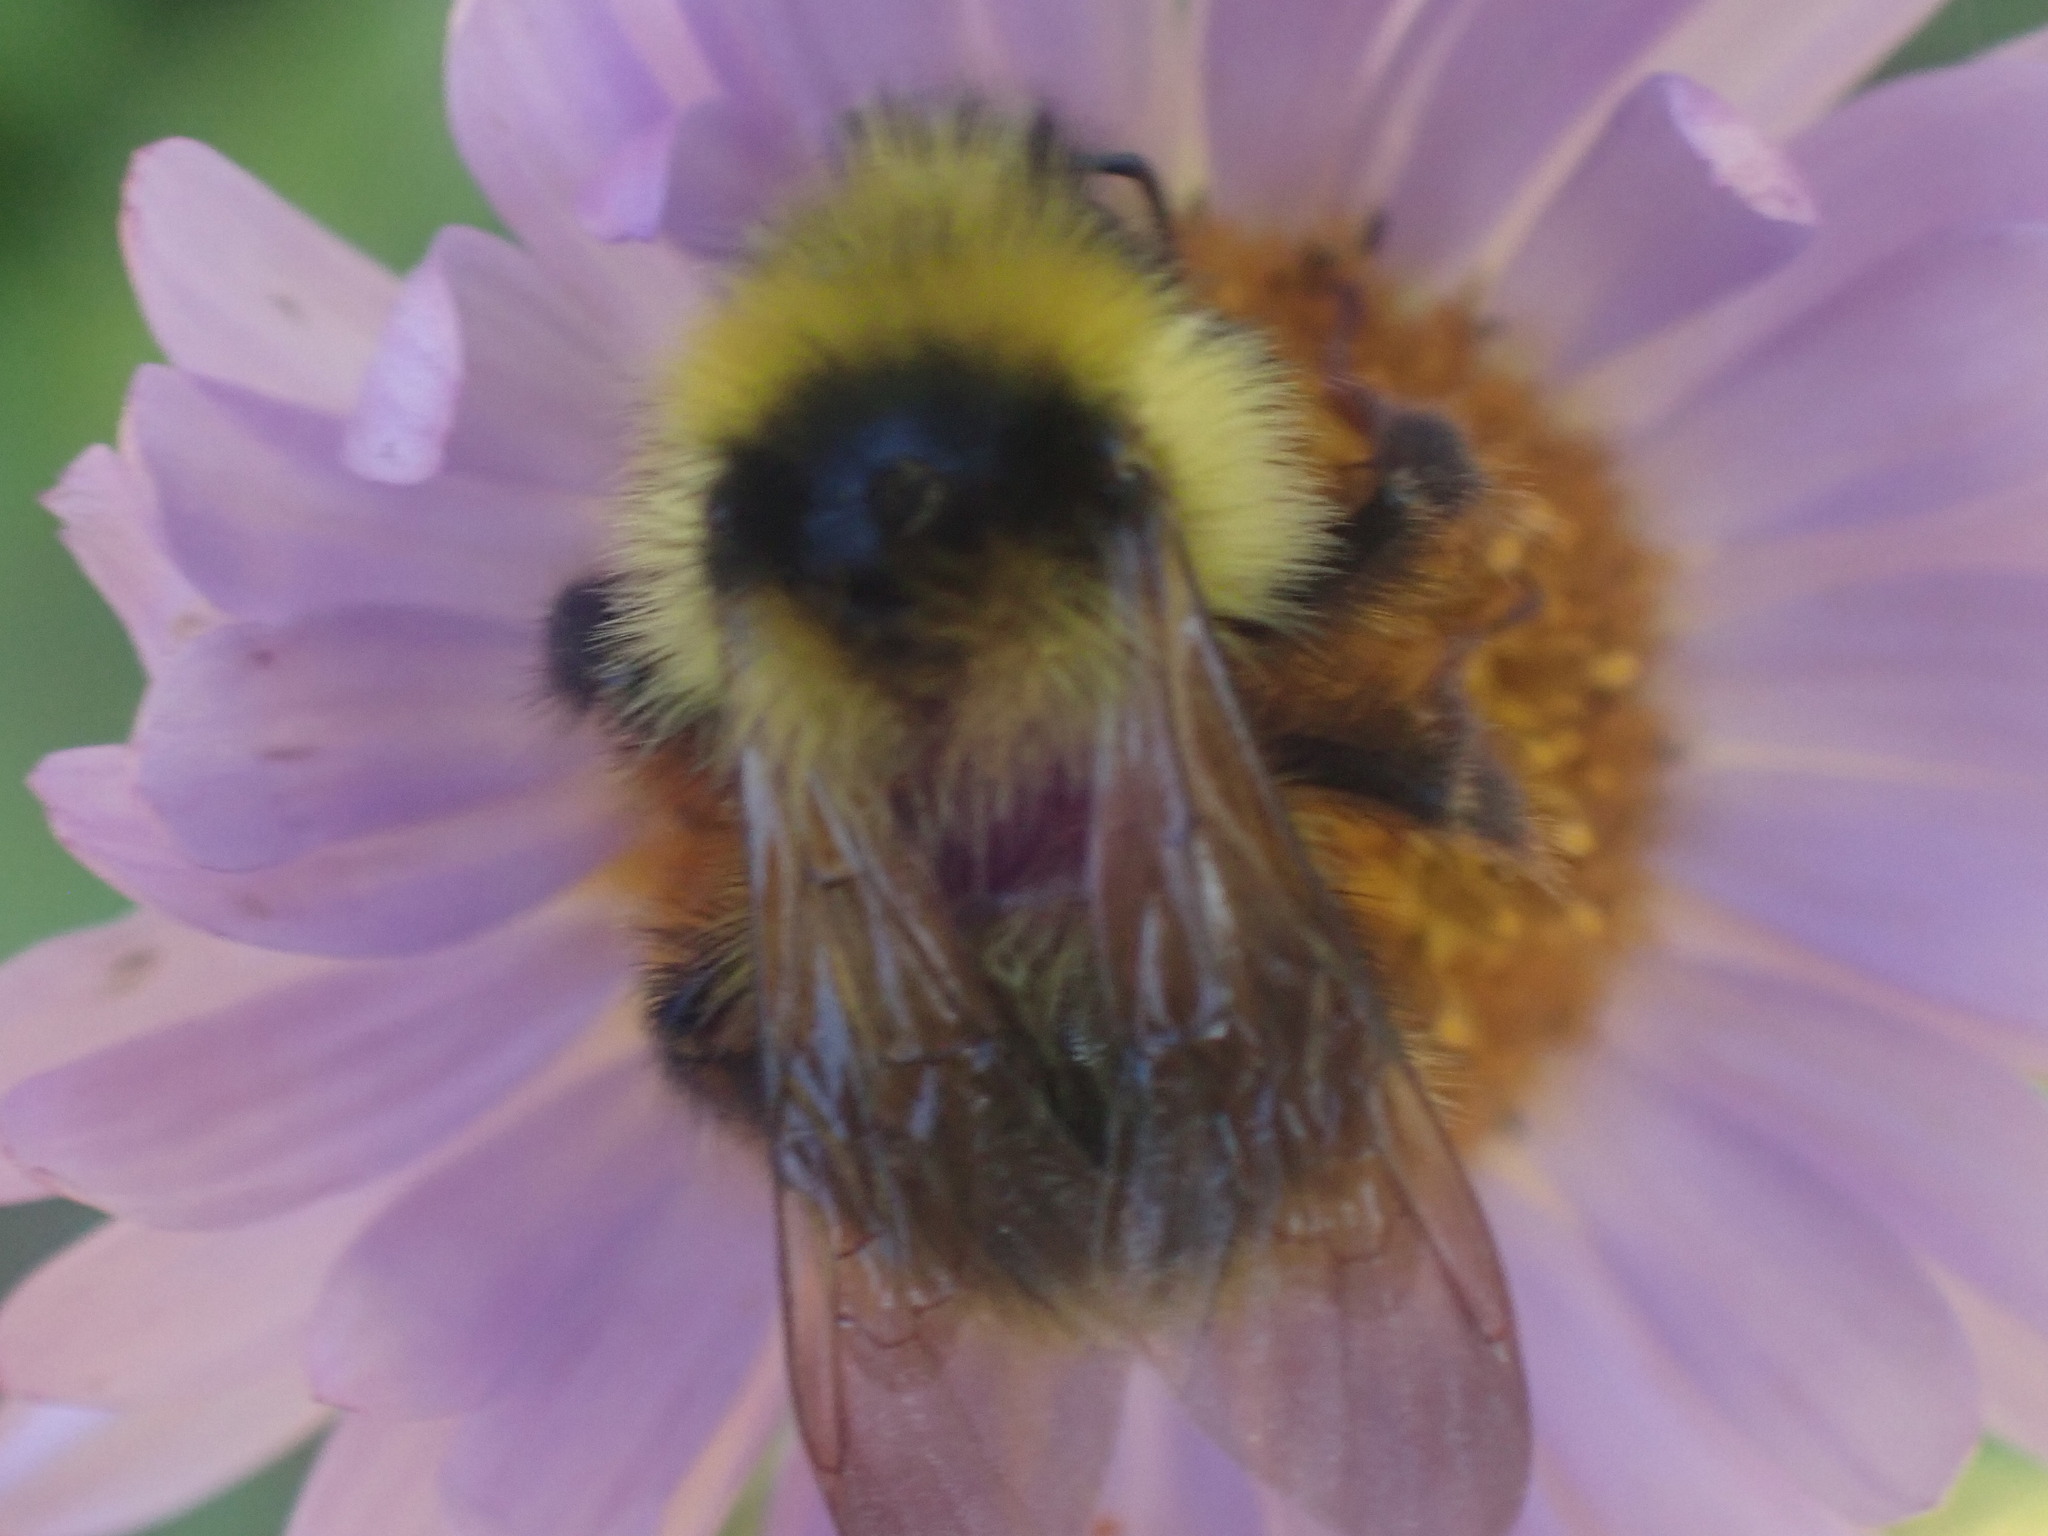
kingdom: Animalia
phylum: Arthropoda
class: Insecta
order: Hymenoptera
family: Apidae
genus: Bombus
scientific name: Bombus flavidus
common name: Fernald cuckoo bumble bee
